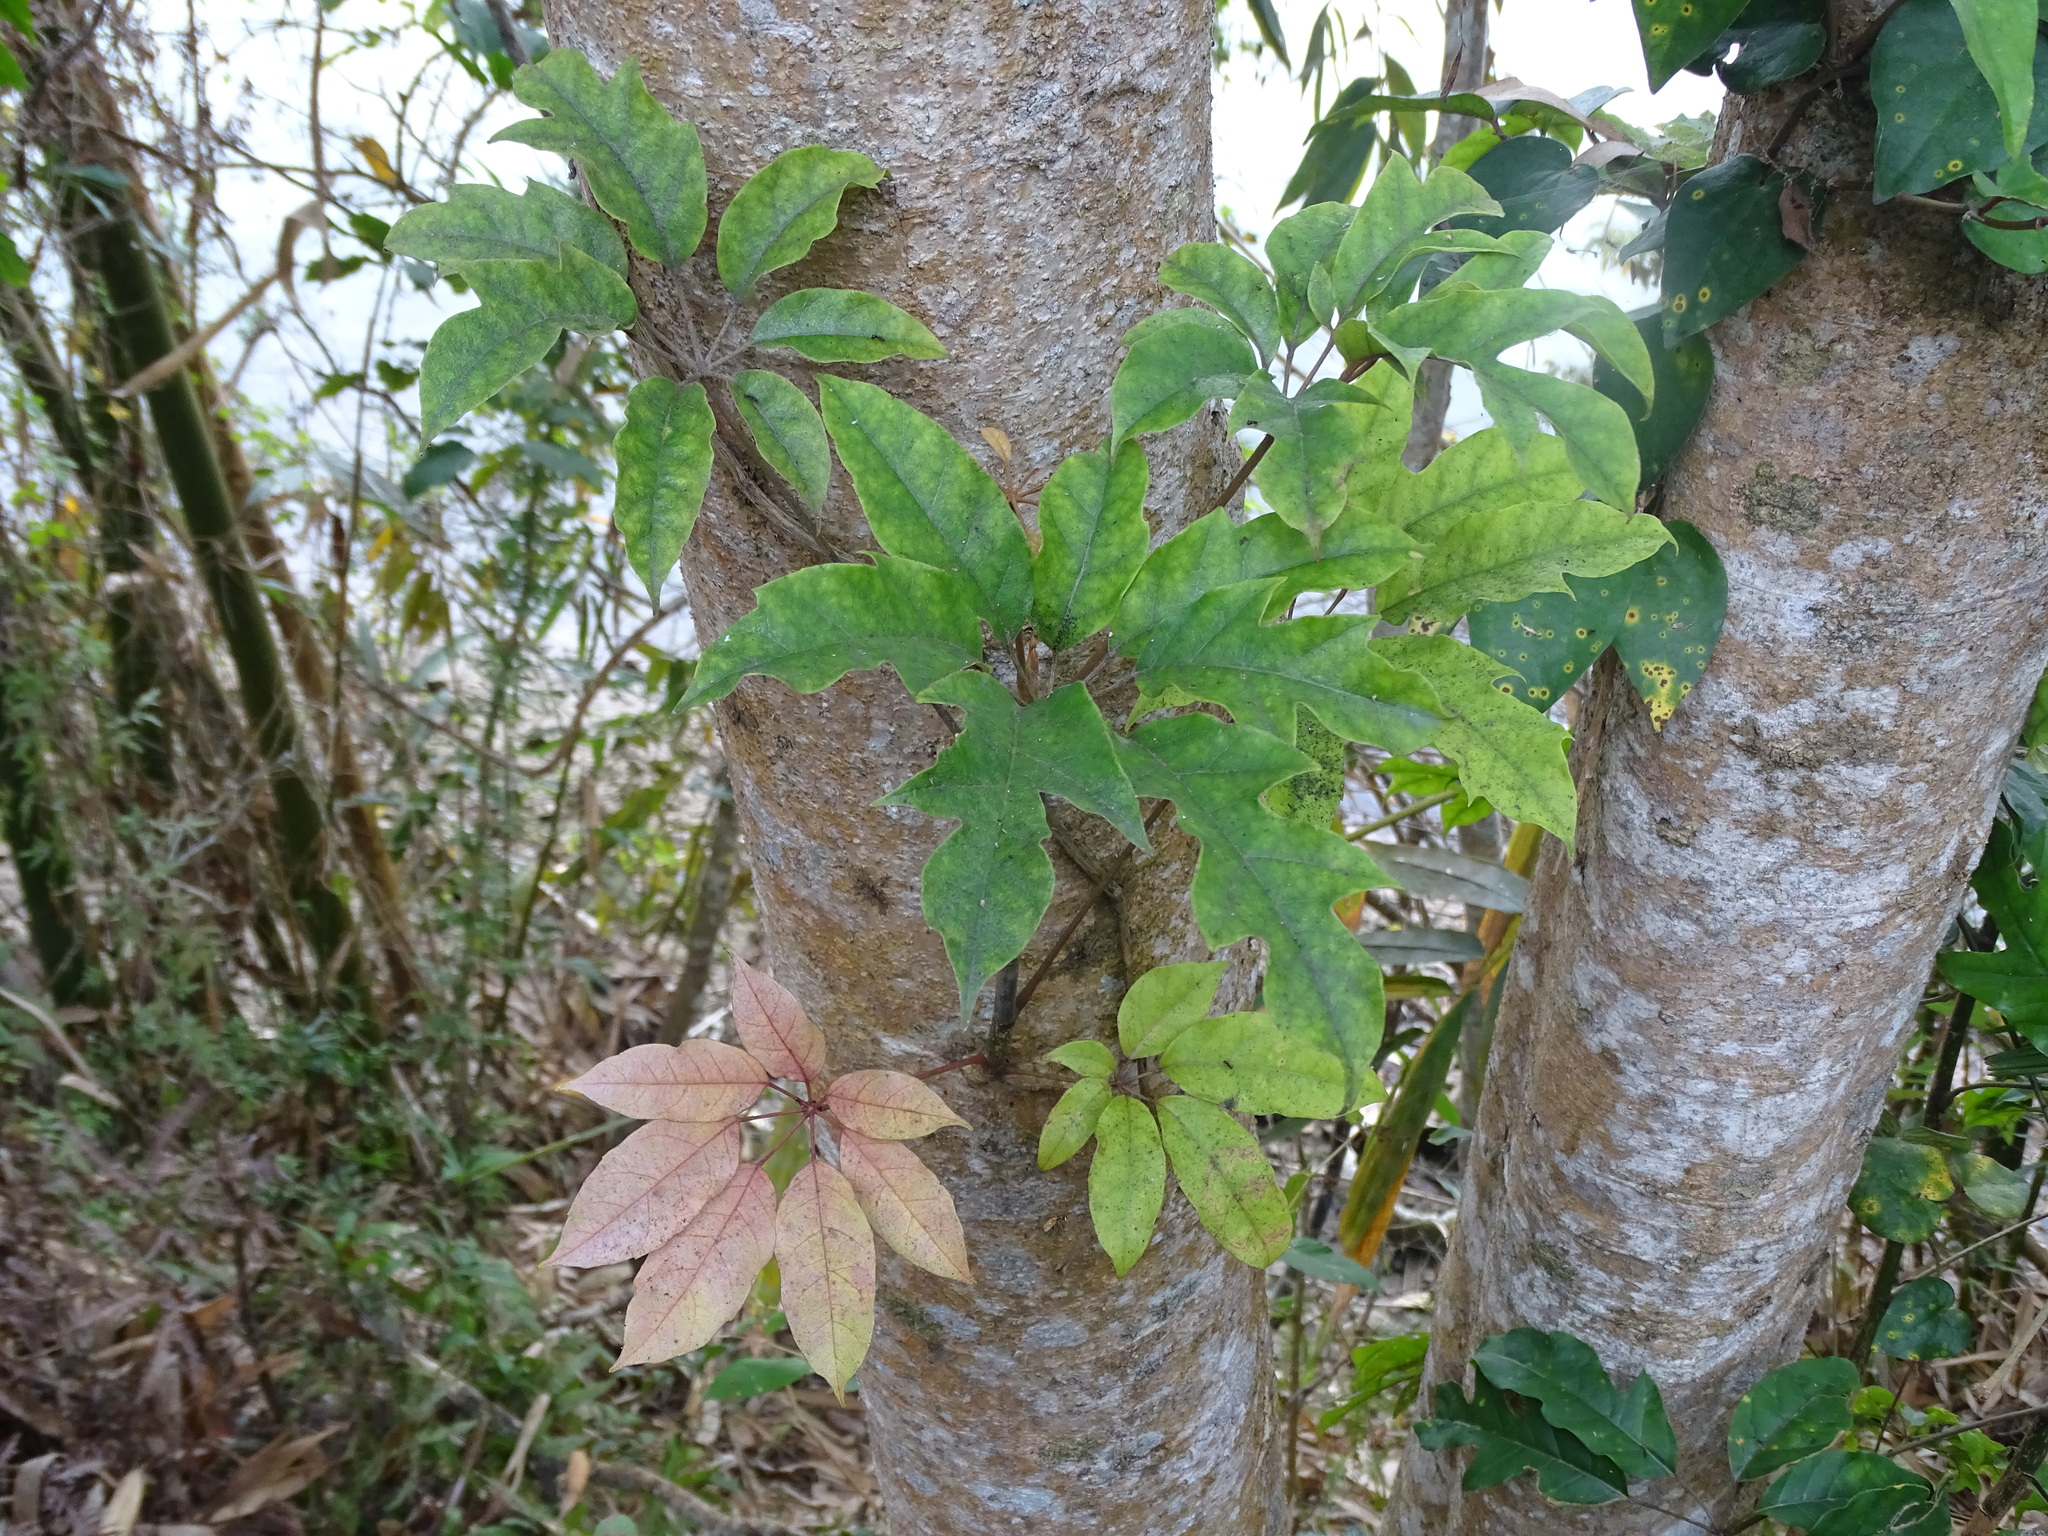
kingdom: Plantae
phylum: Tracheophyta
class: Magnoliopsida
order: Apiales
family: Araliaceae
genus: Heptapleurum
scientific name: Heptapleurum heptaphyllum
